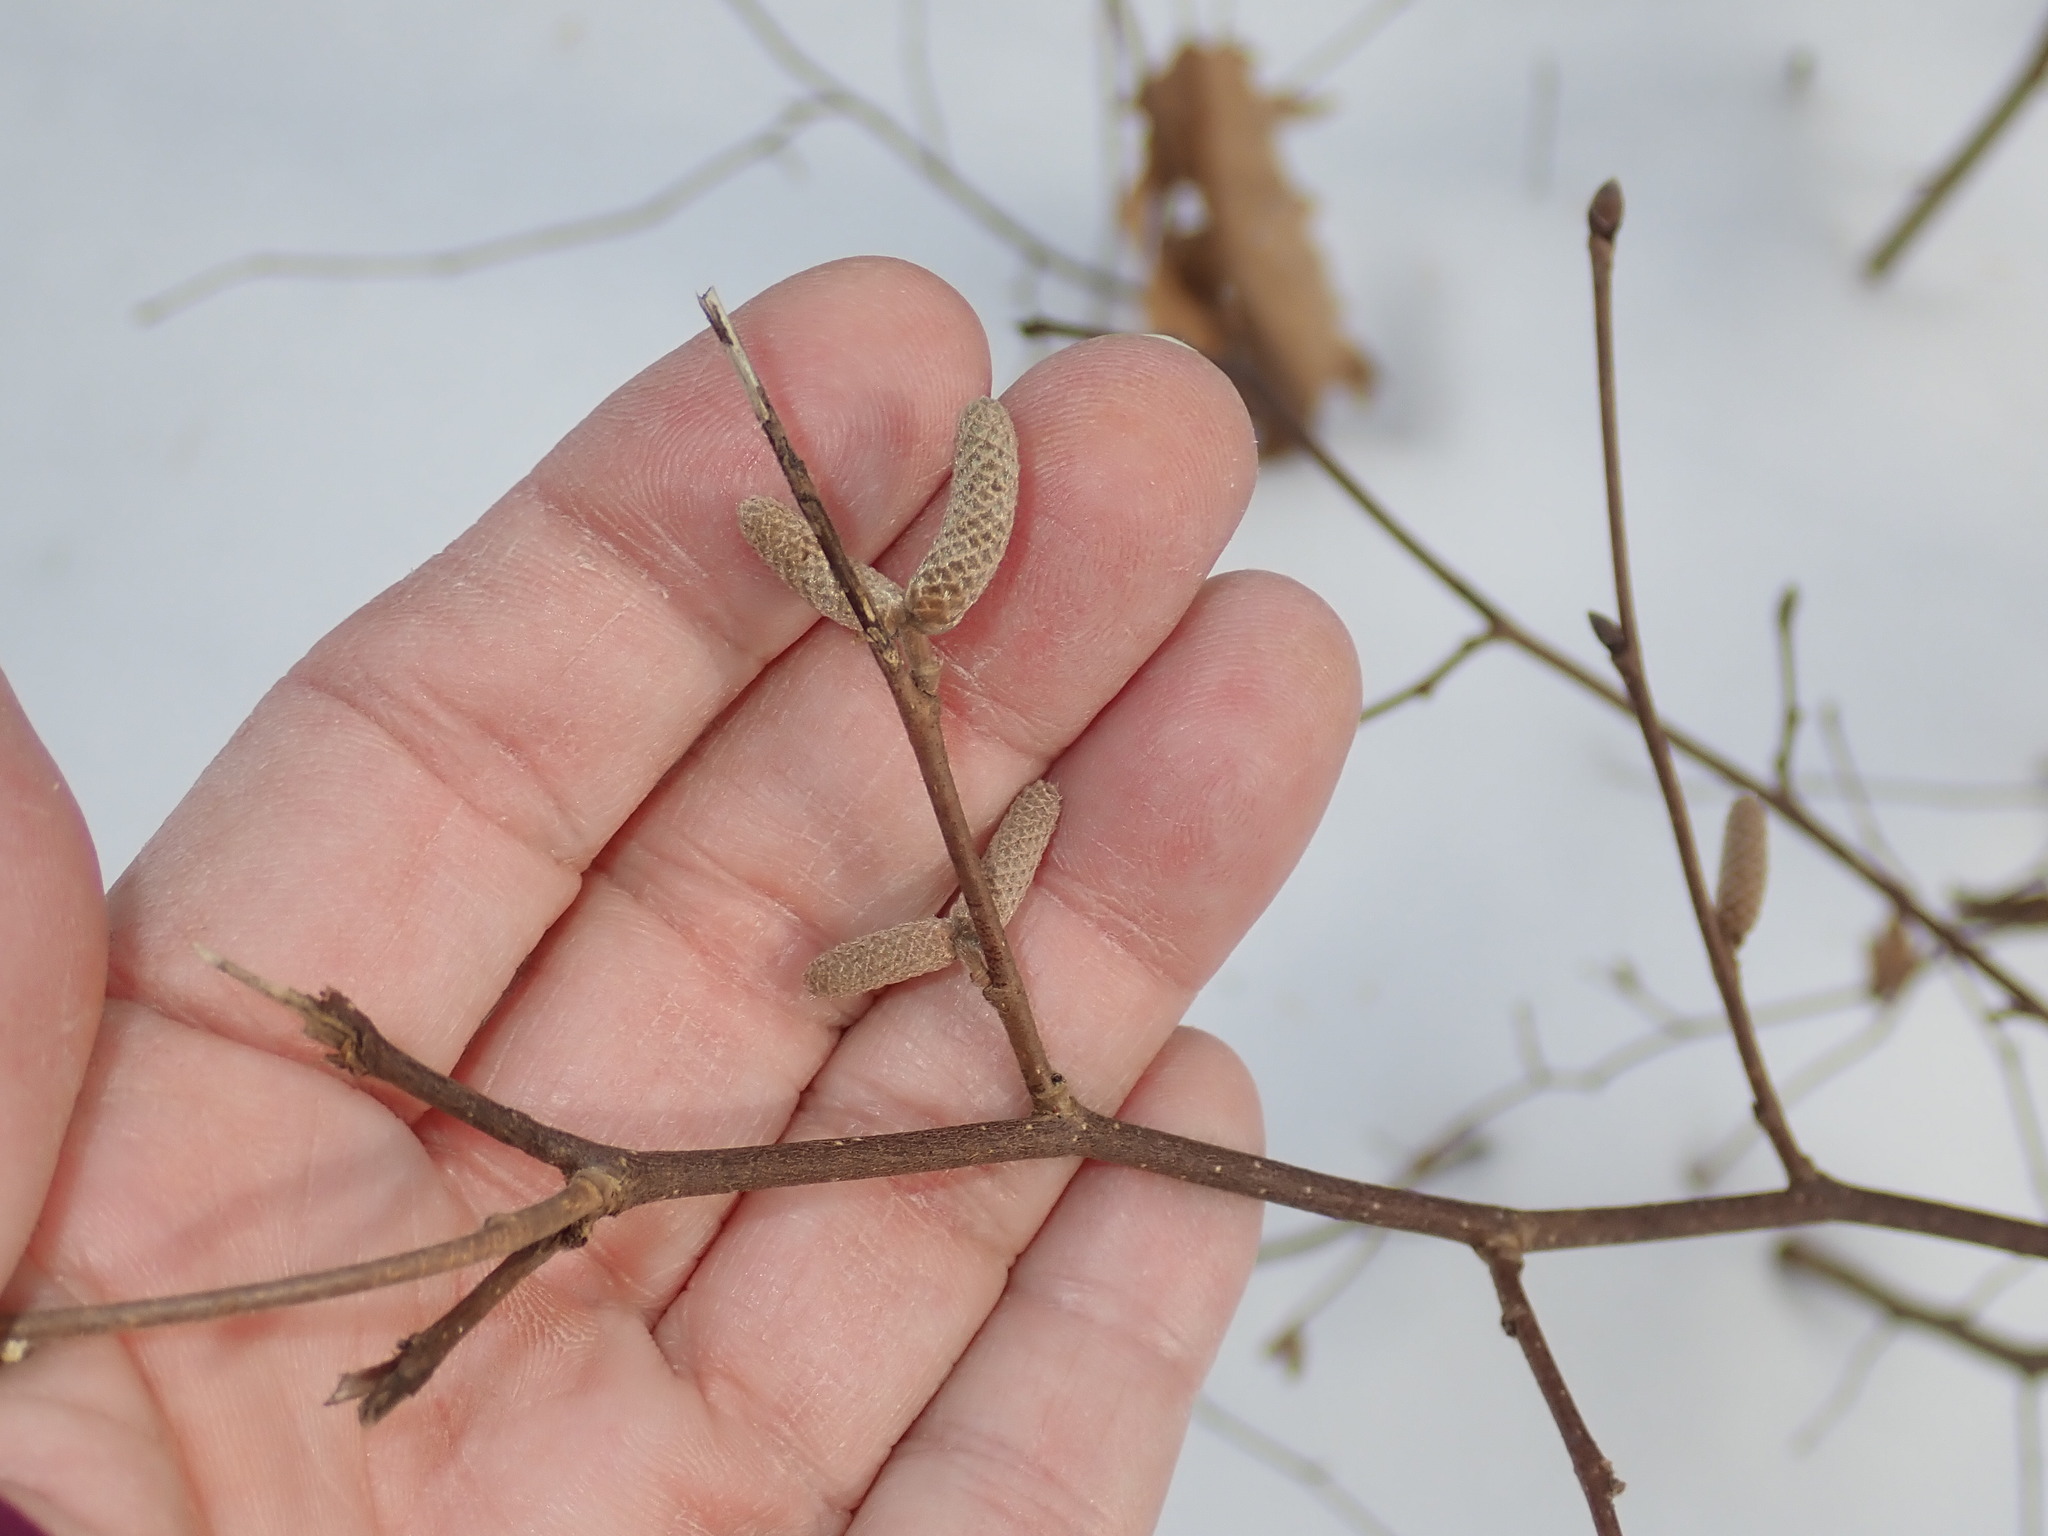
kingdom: Plantae
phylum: Tracheophyta
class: Magnoliopsida
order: Fagales
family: Betulaceae
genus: Corylus
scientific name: Corylus cornuta
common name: Beaked hazel
